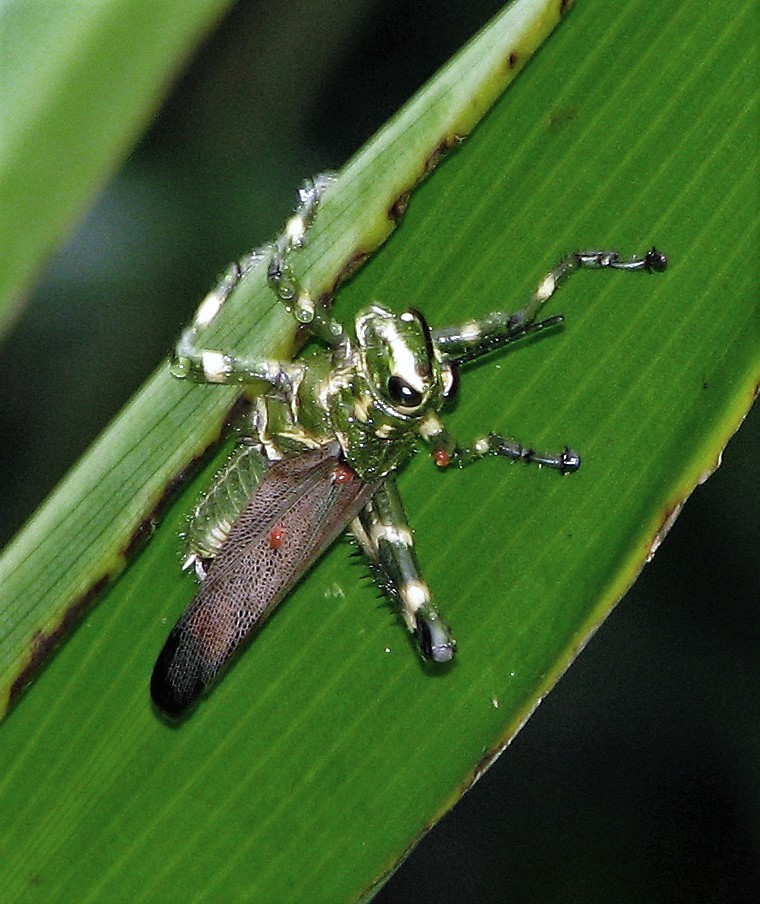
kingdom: Animalia
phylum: Arthropoda
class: Insecta
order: Orthoptera
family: Romaleidae
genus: Chromacris
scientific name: Chromacris speciosa
